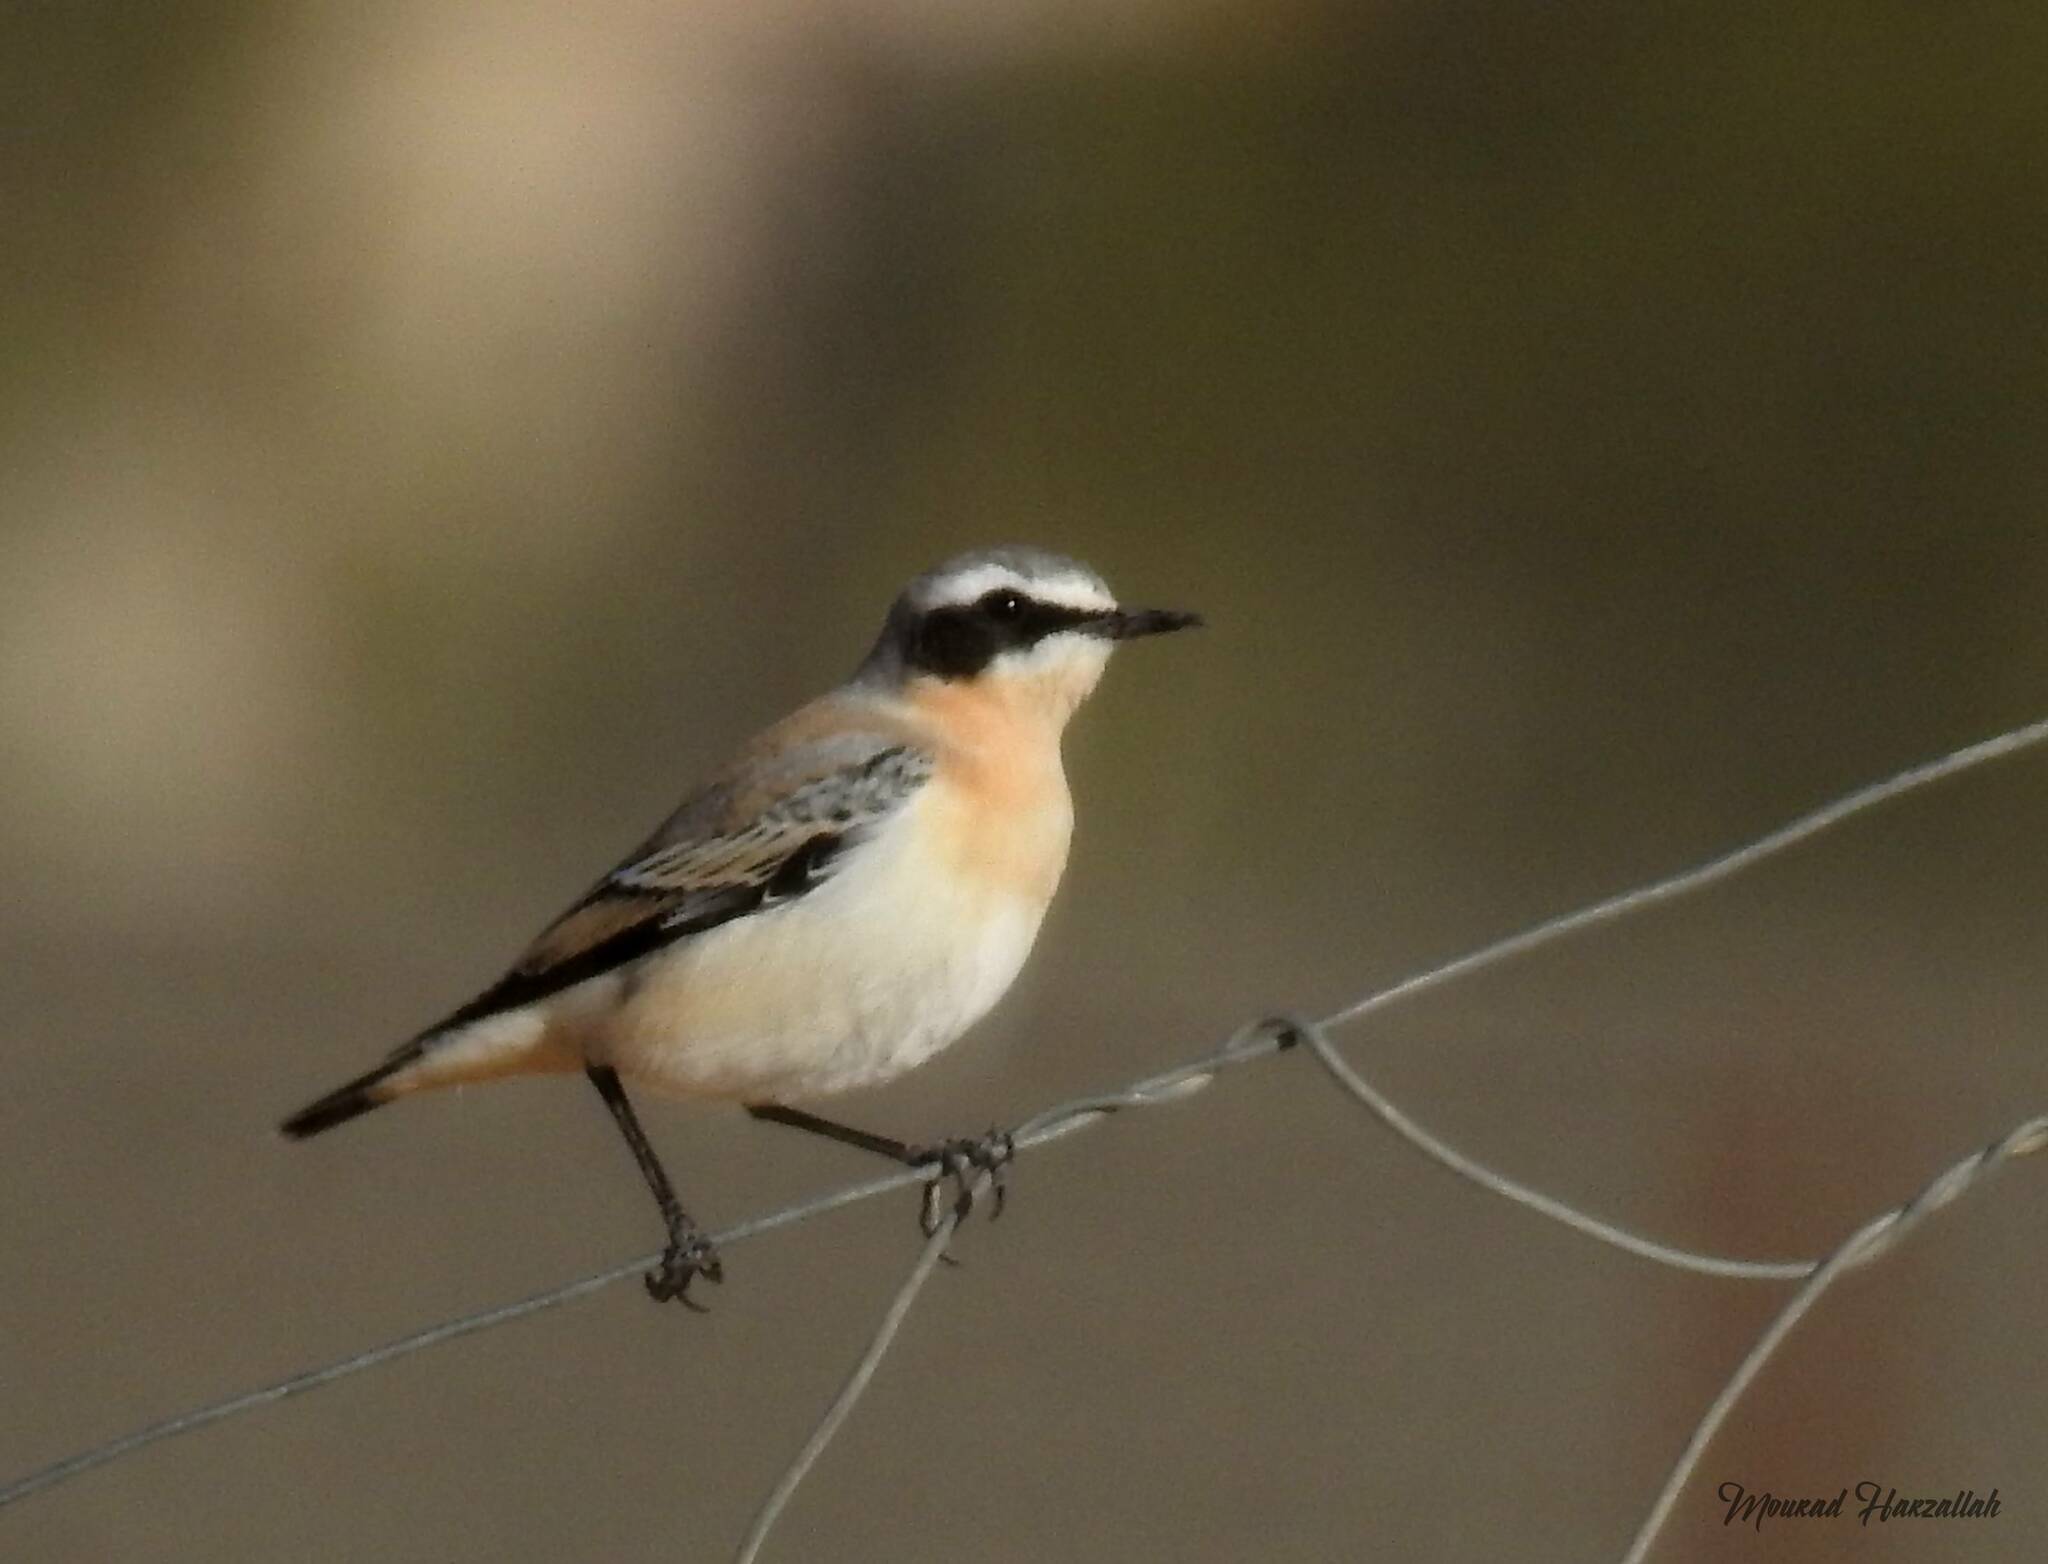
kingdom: Animalia
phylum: Chordata
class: Aves
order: Passeriformes
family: Muscicapidae
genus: Oenanthe
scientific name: Oenanthe oenanthe
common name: Northern wheatear
